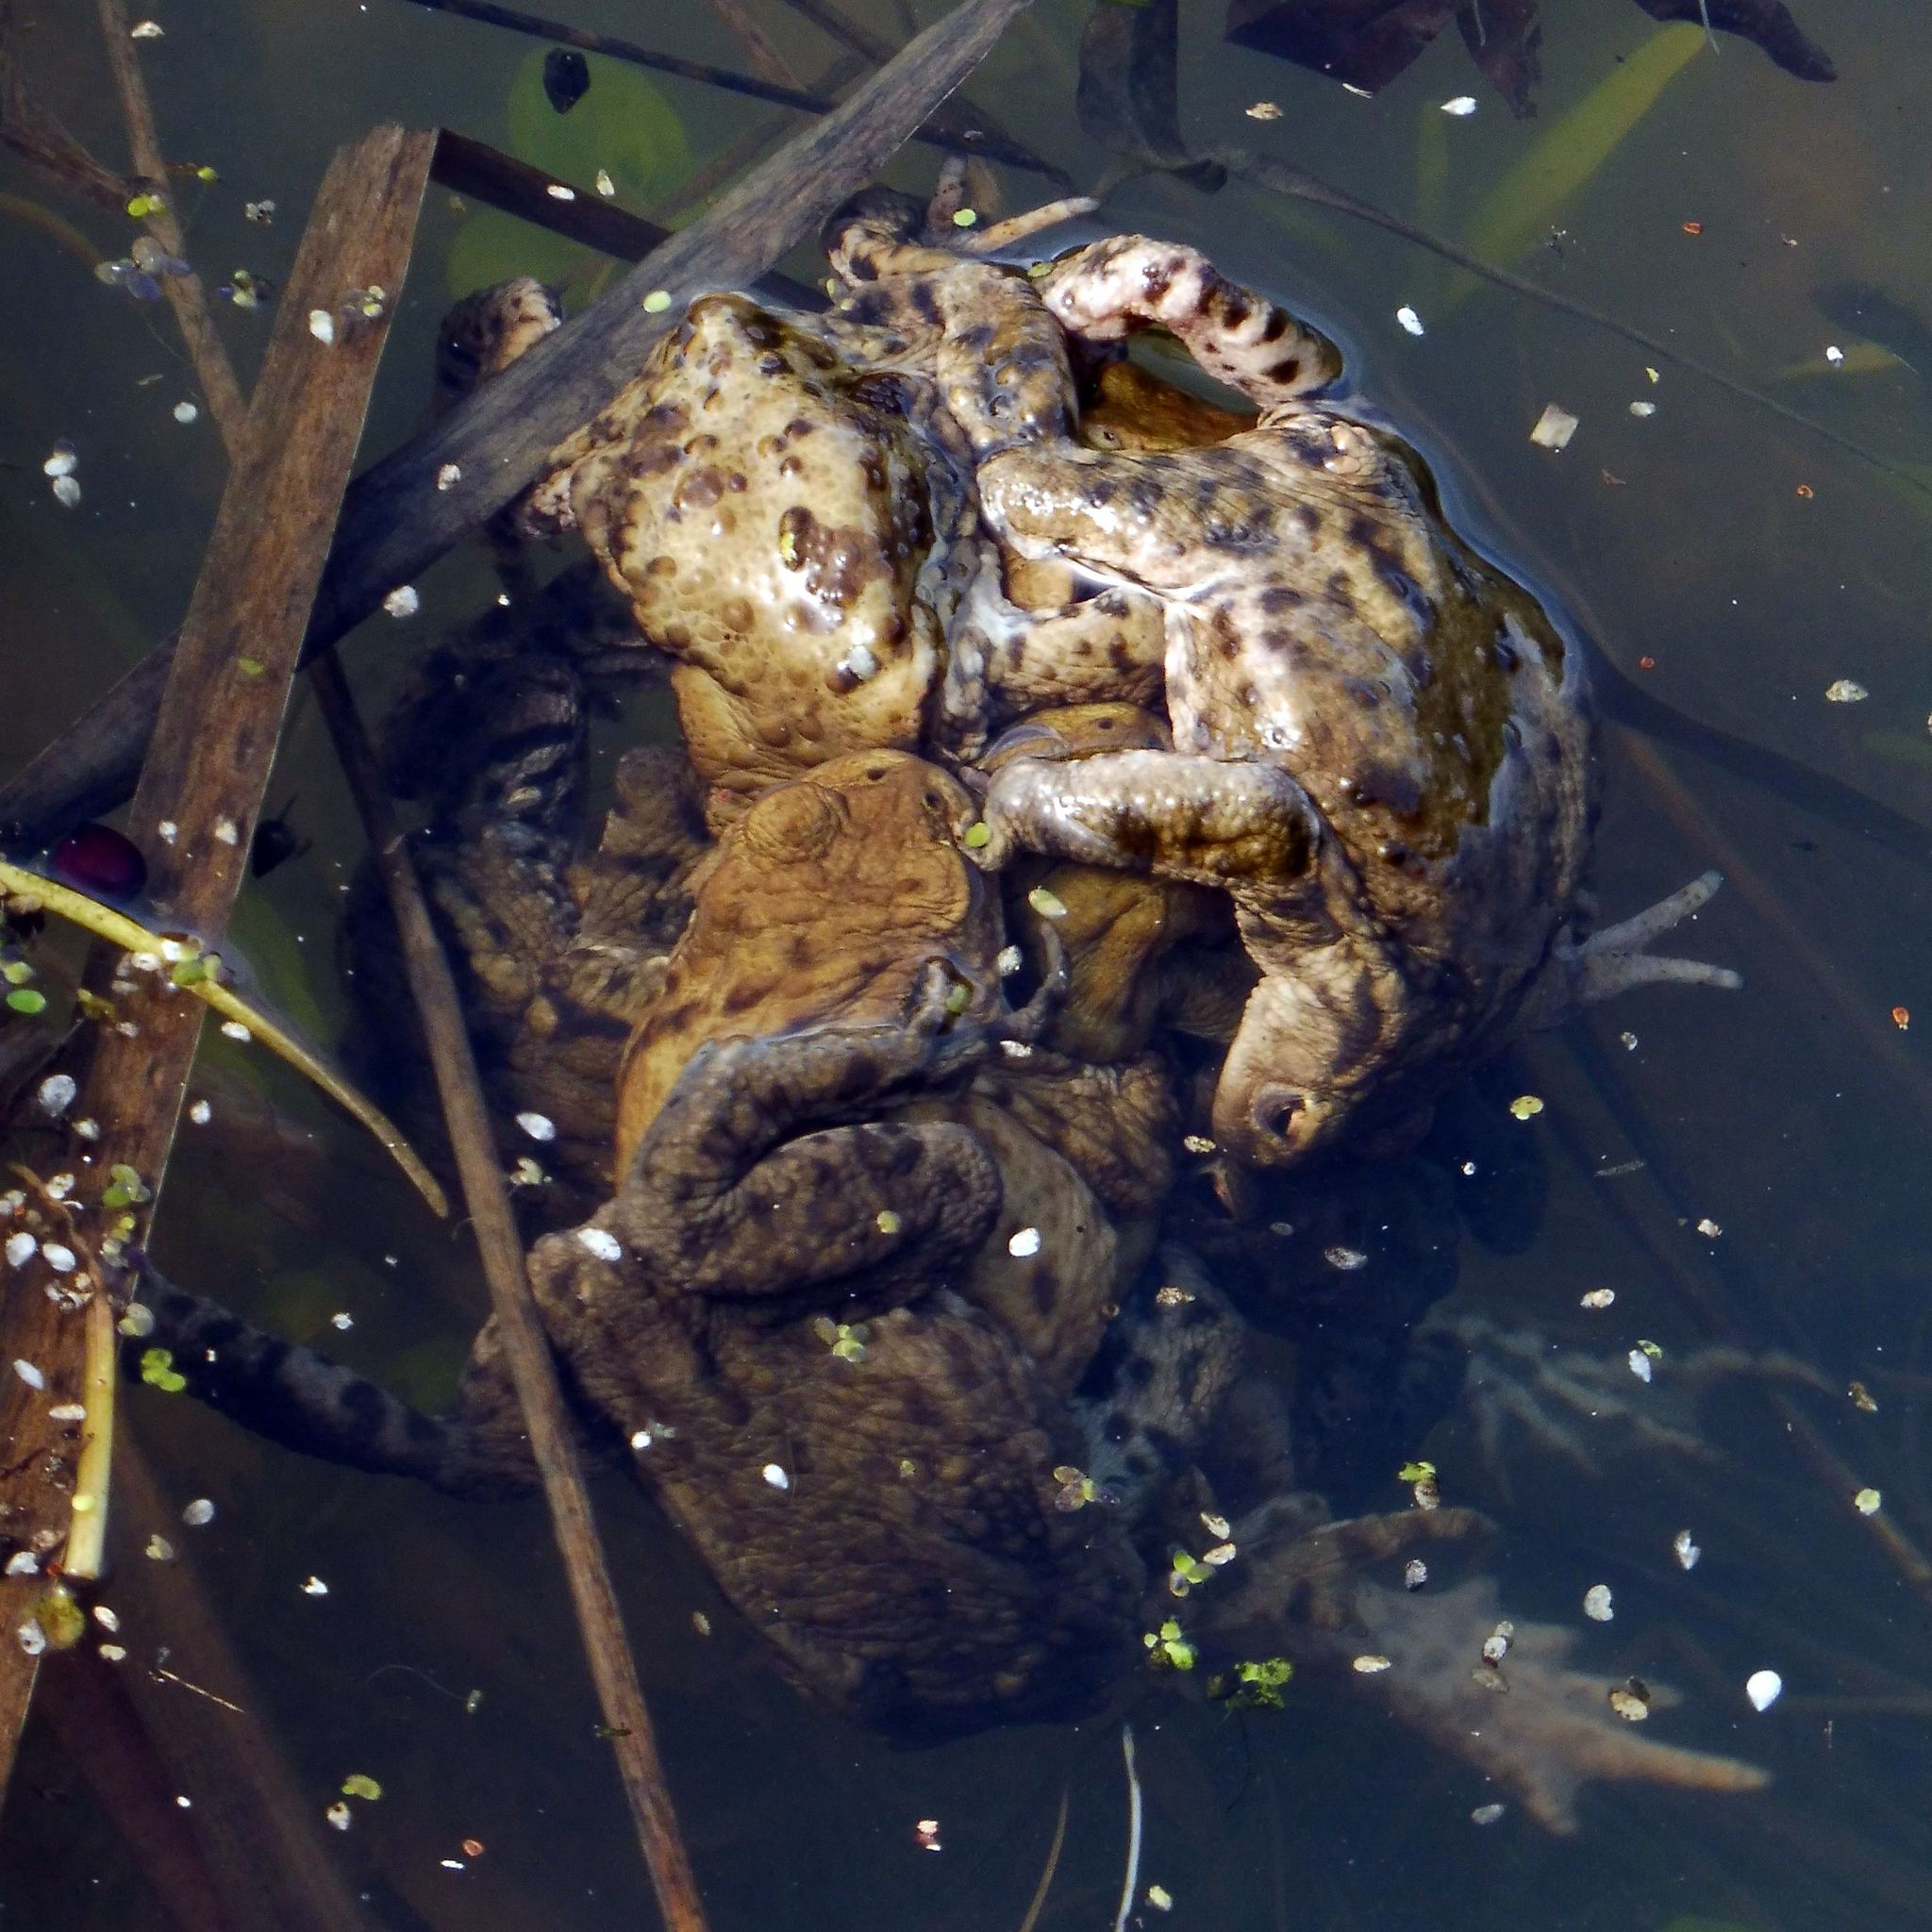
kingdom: Animalia
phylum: Chordata
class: Amphibia
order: Anura
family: Bufonidae
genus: Bufo
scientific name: Bufo bufo
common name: Common toad
